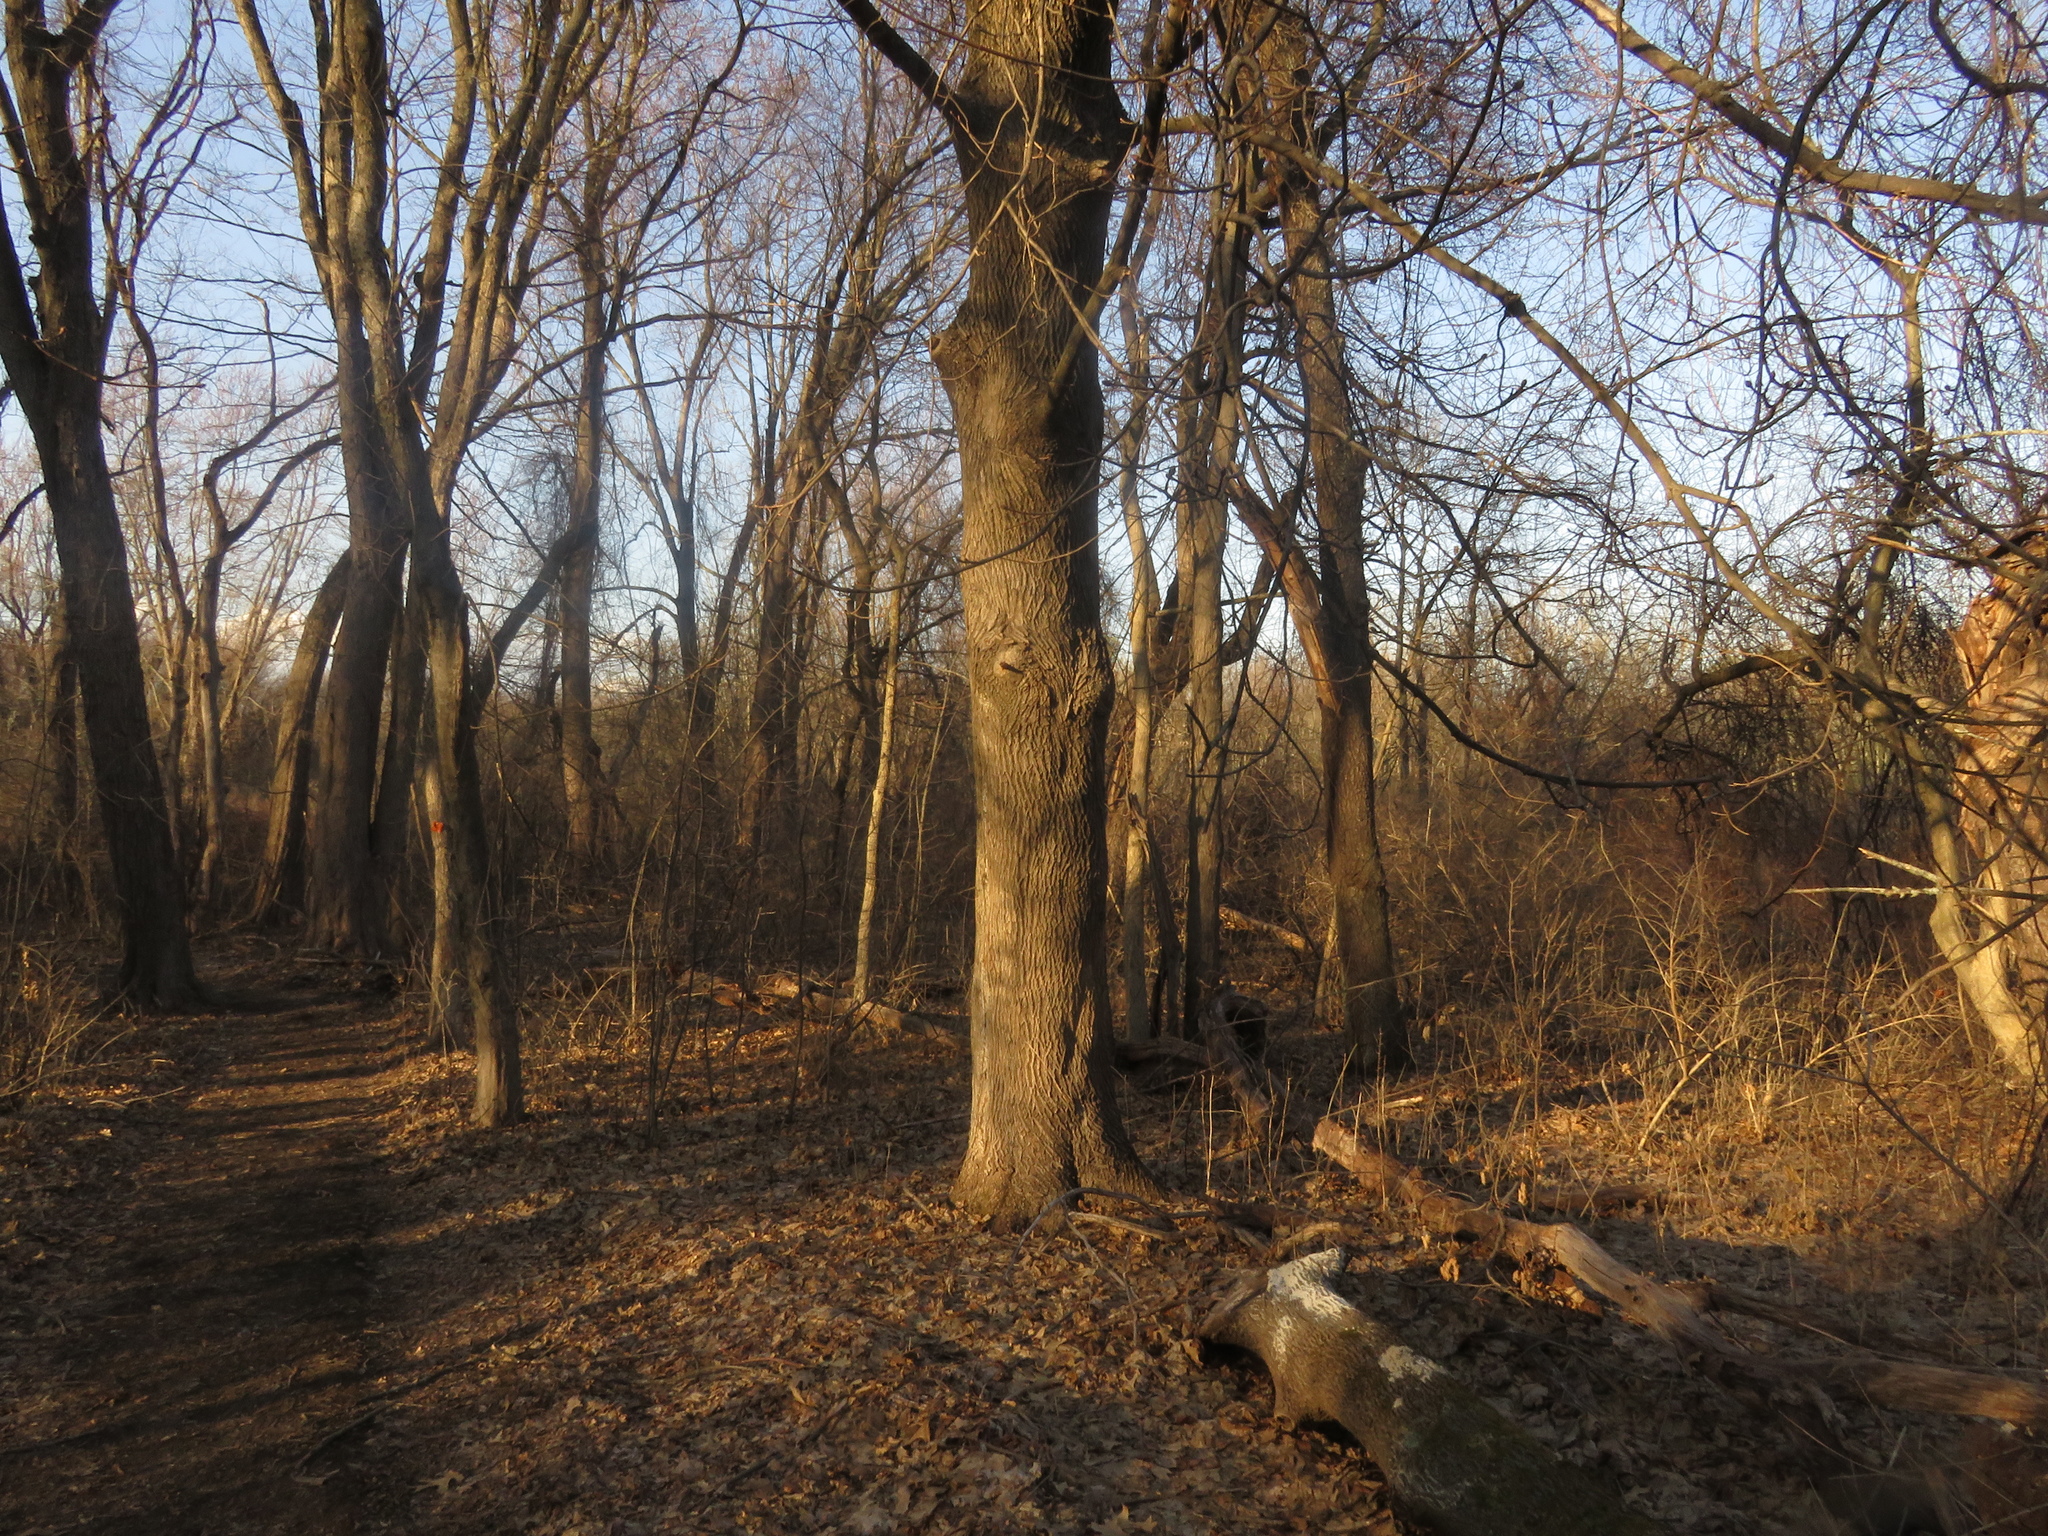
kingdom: Plantae
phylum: Tracheophyta
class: Magnoliopsida
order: Sapindales
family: Sapindaceae
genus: Acer
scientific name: Acer platanoides
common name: Norway maple
